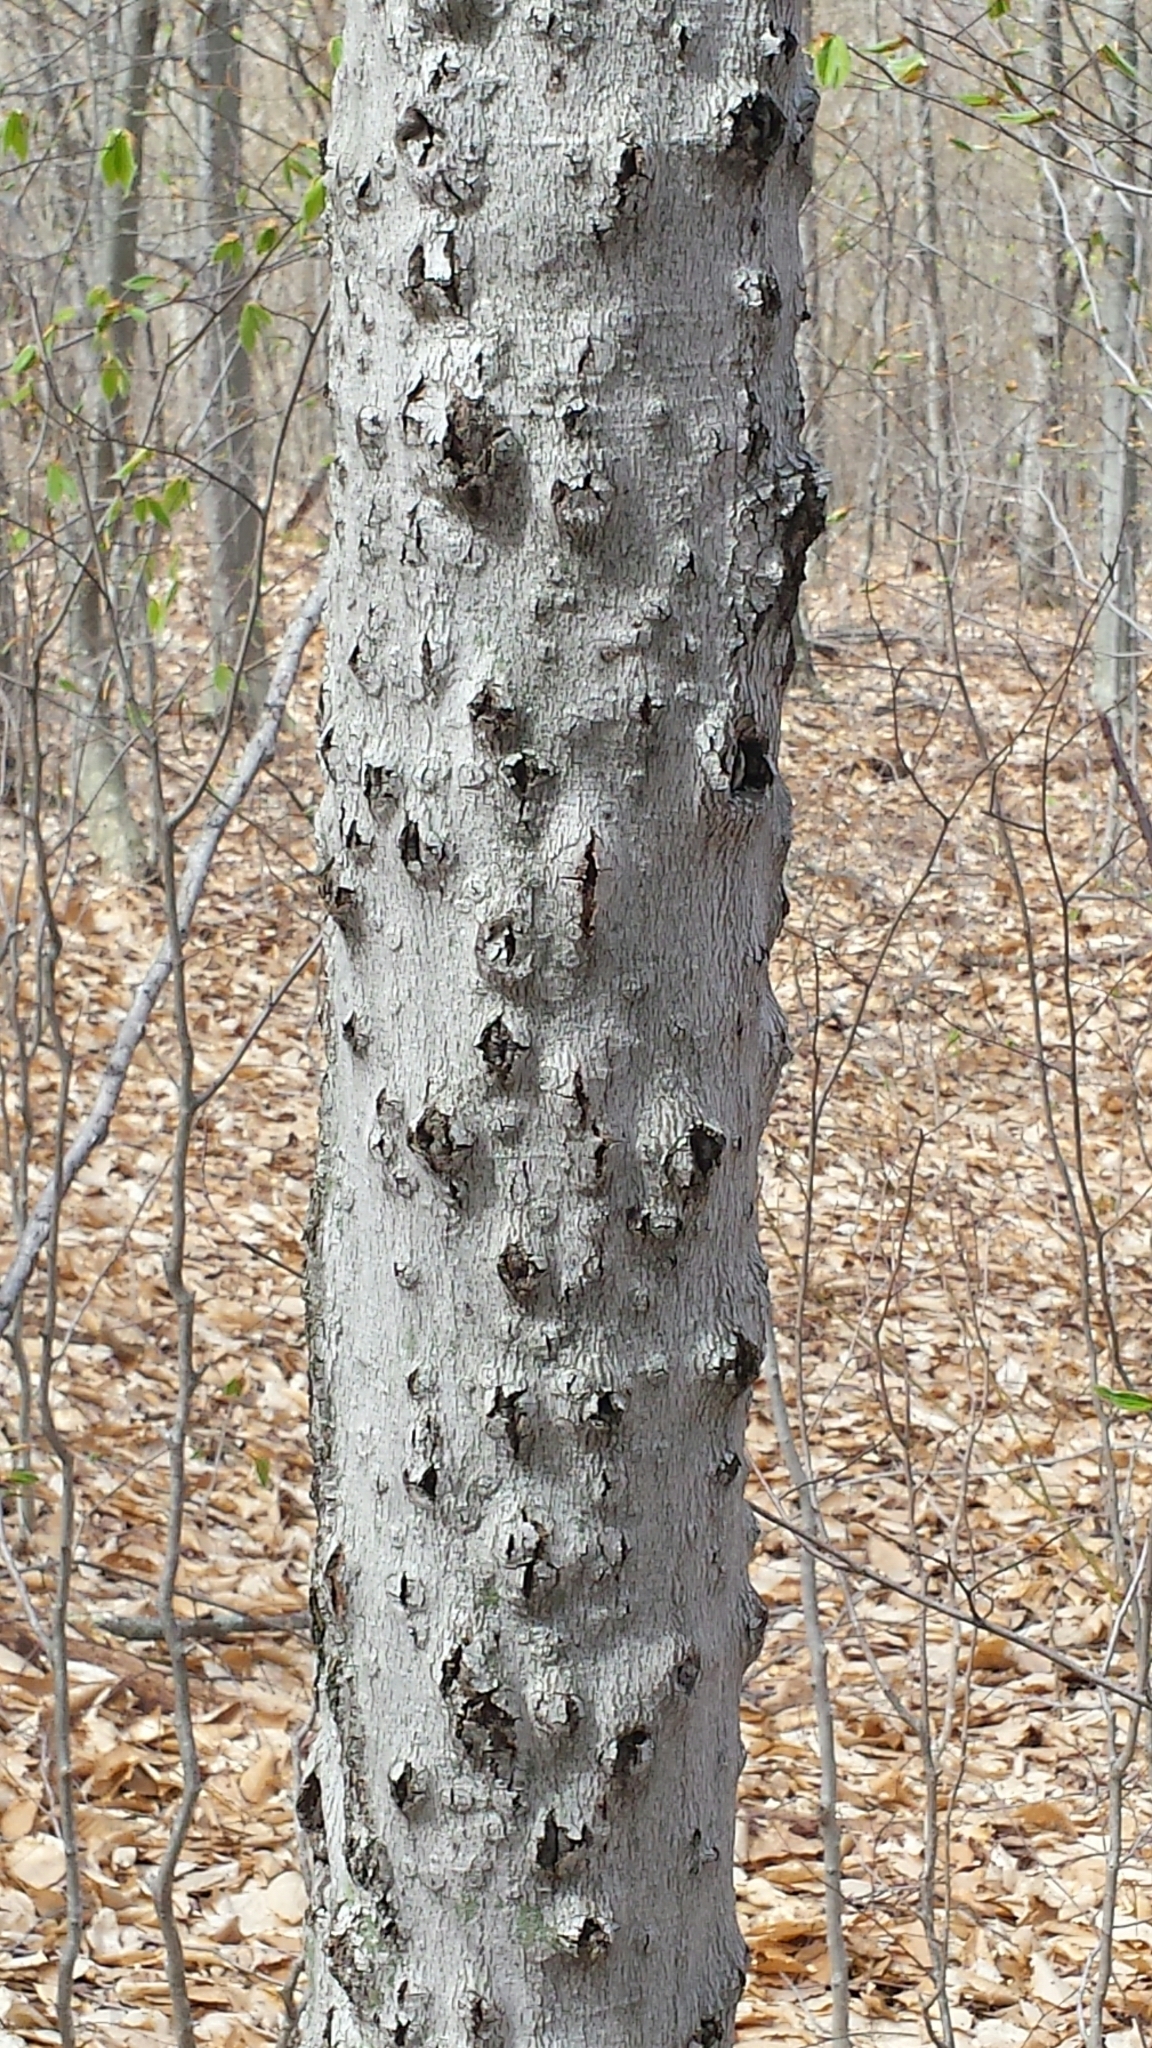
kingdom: Fungi
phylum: Ascomycota
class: Sordariomycetes
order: Hypocreales
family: Nectriaceae
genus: Neonectria
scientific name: Neonectria faginata
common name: Beech bark canker
